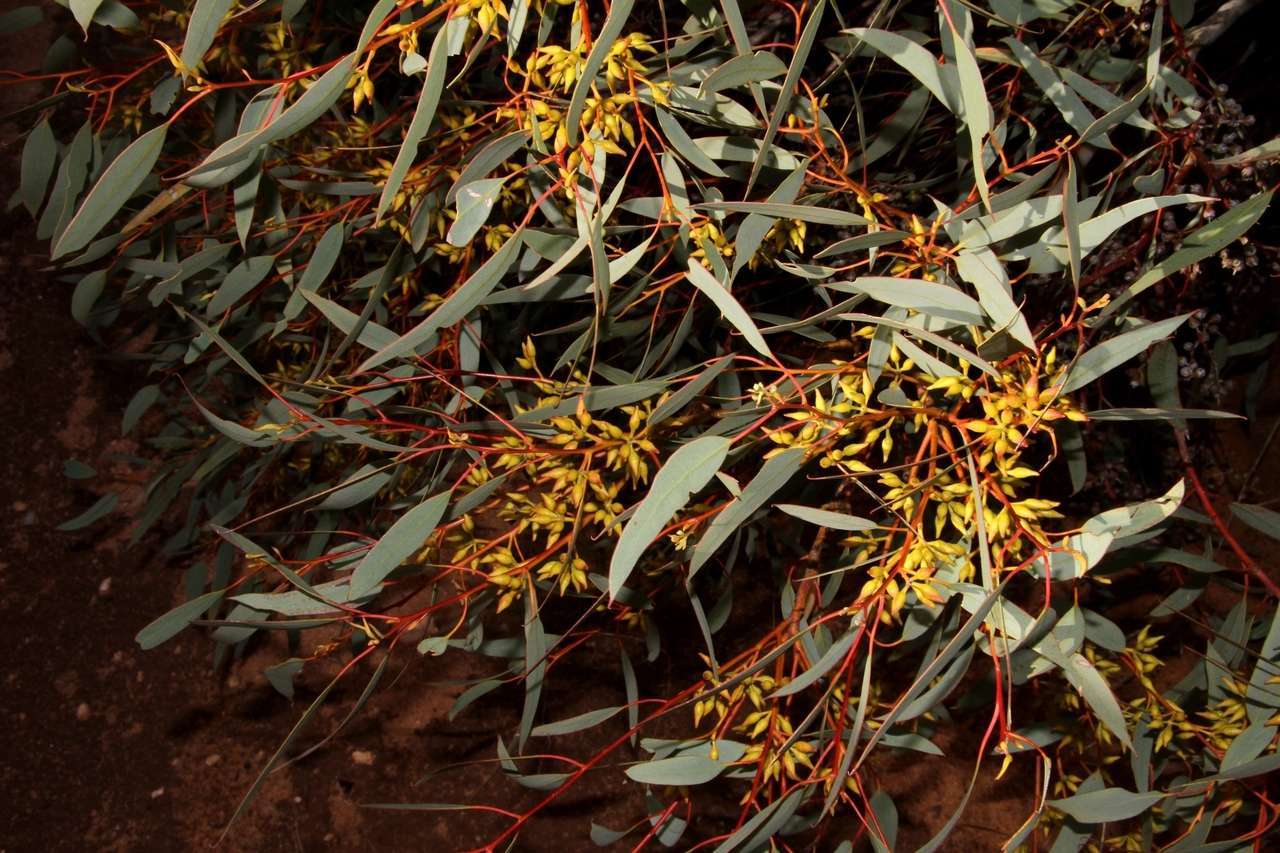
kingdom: Plantae
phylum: Tracheophyta
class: Magnoliopsida
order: Myrtales
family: Myrtaceae
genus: Eucalyptus
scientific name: Eucalyptus socialis
